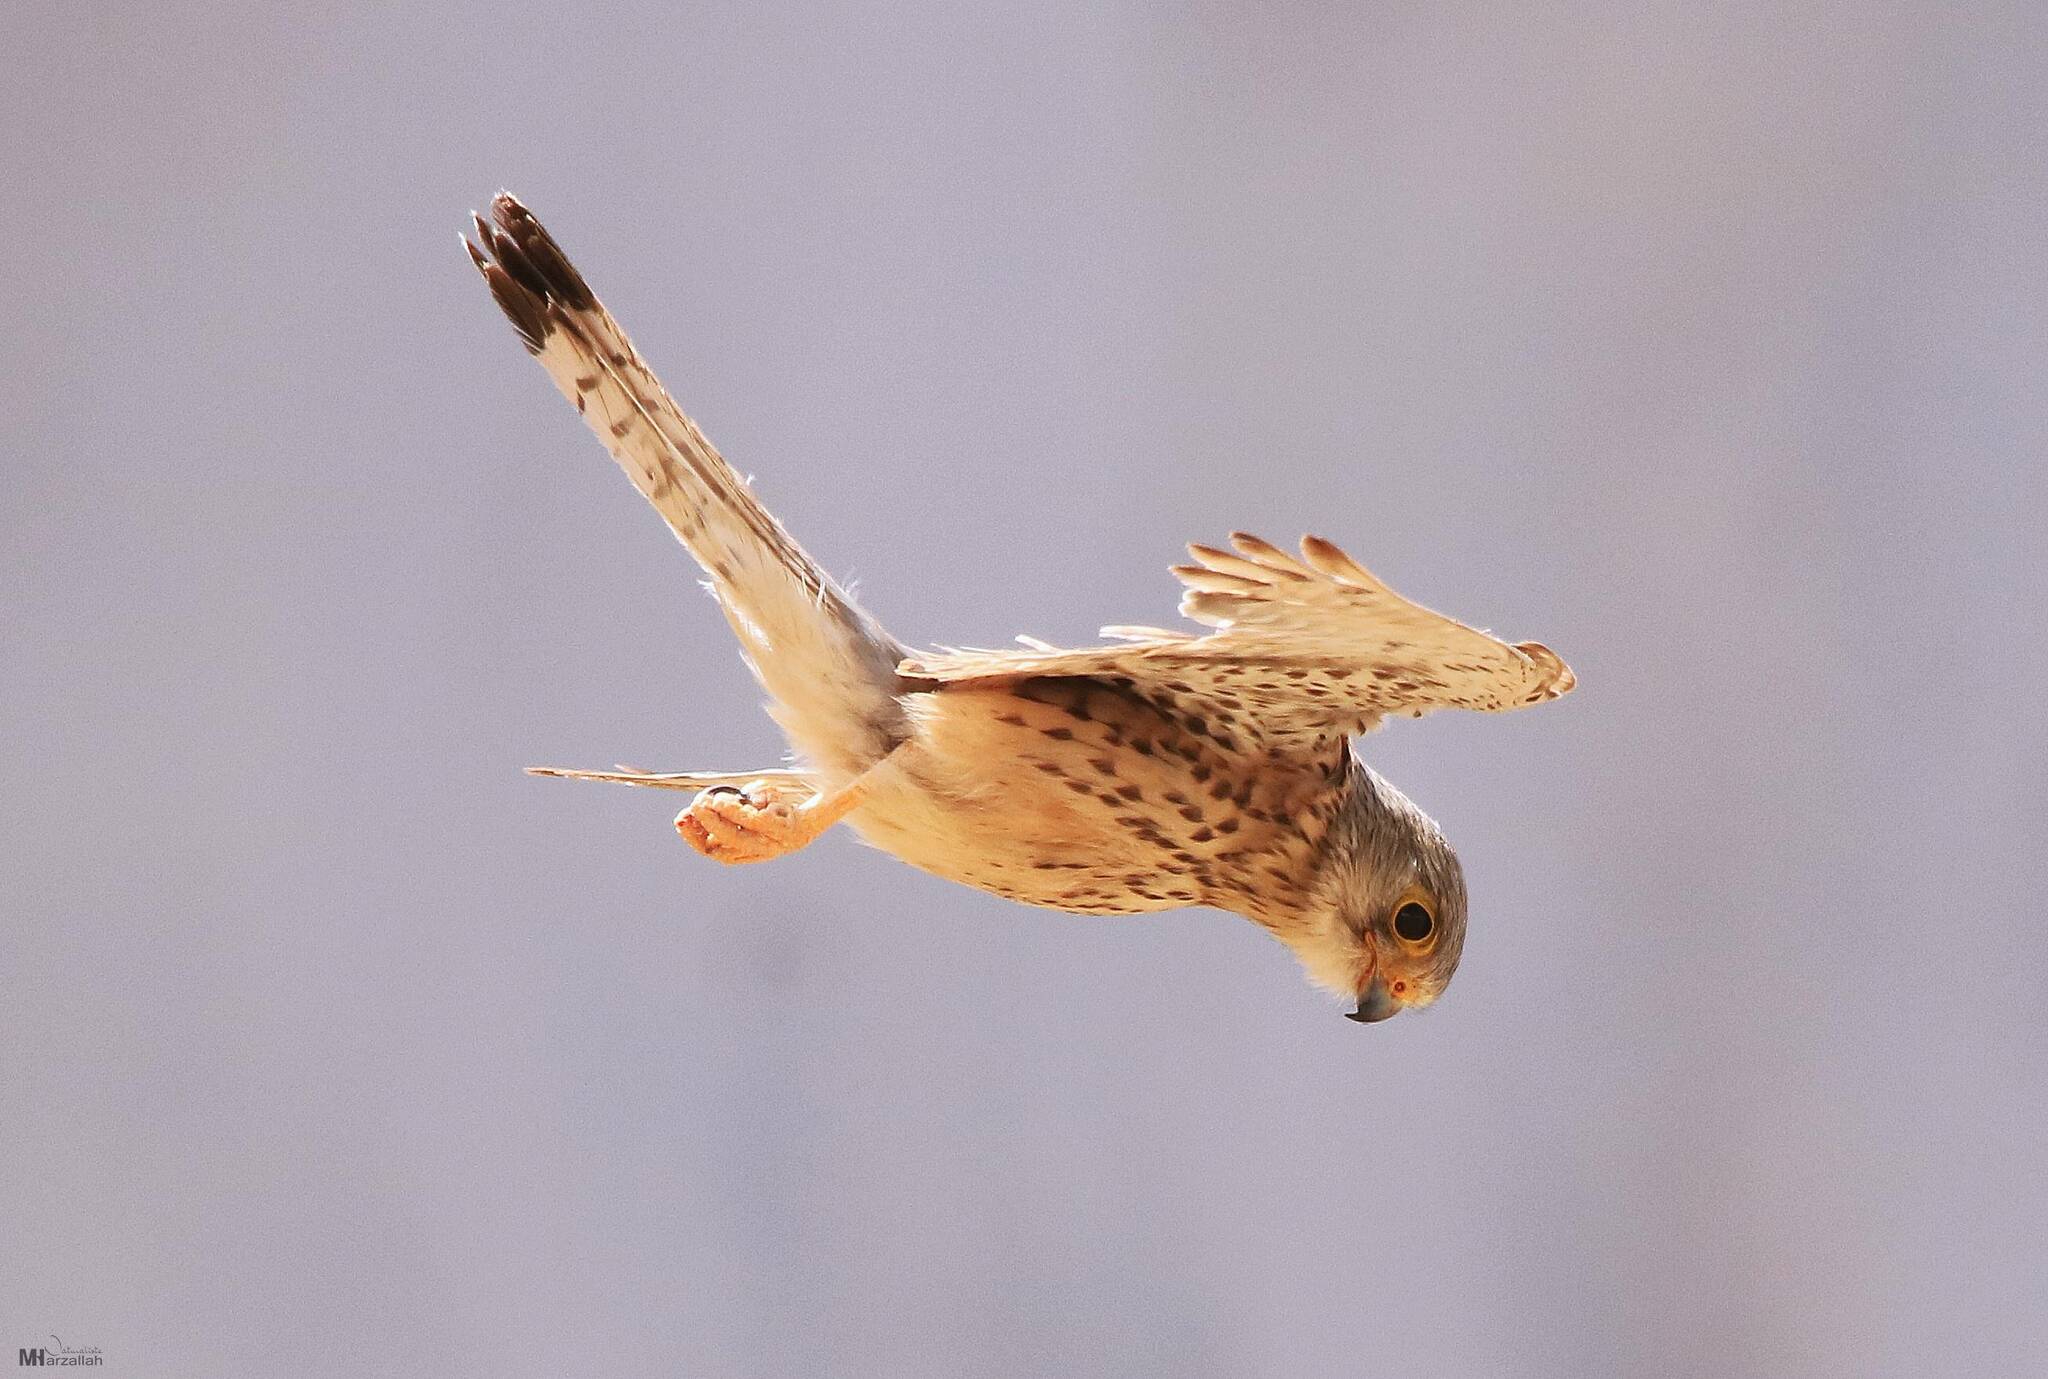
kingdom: Animalia
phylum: Chordata
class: Aves
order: Falconiformes
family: Falconidae
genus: Falco
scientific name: Falco tinnunculus
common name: Common kestrel
